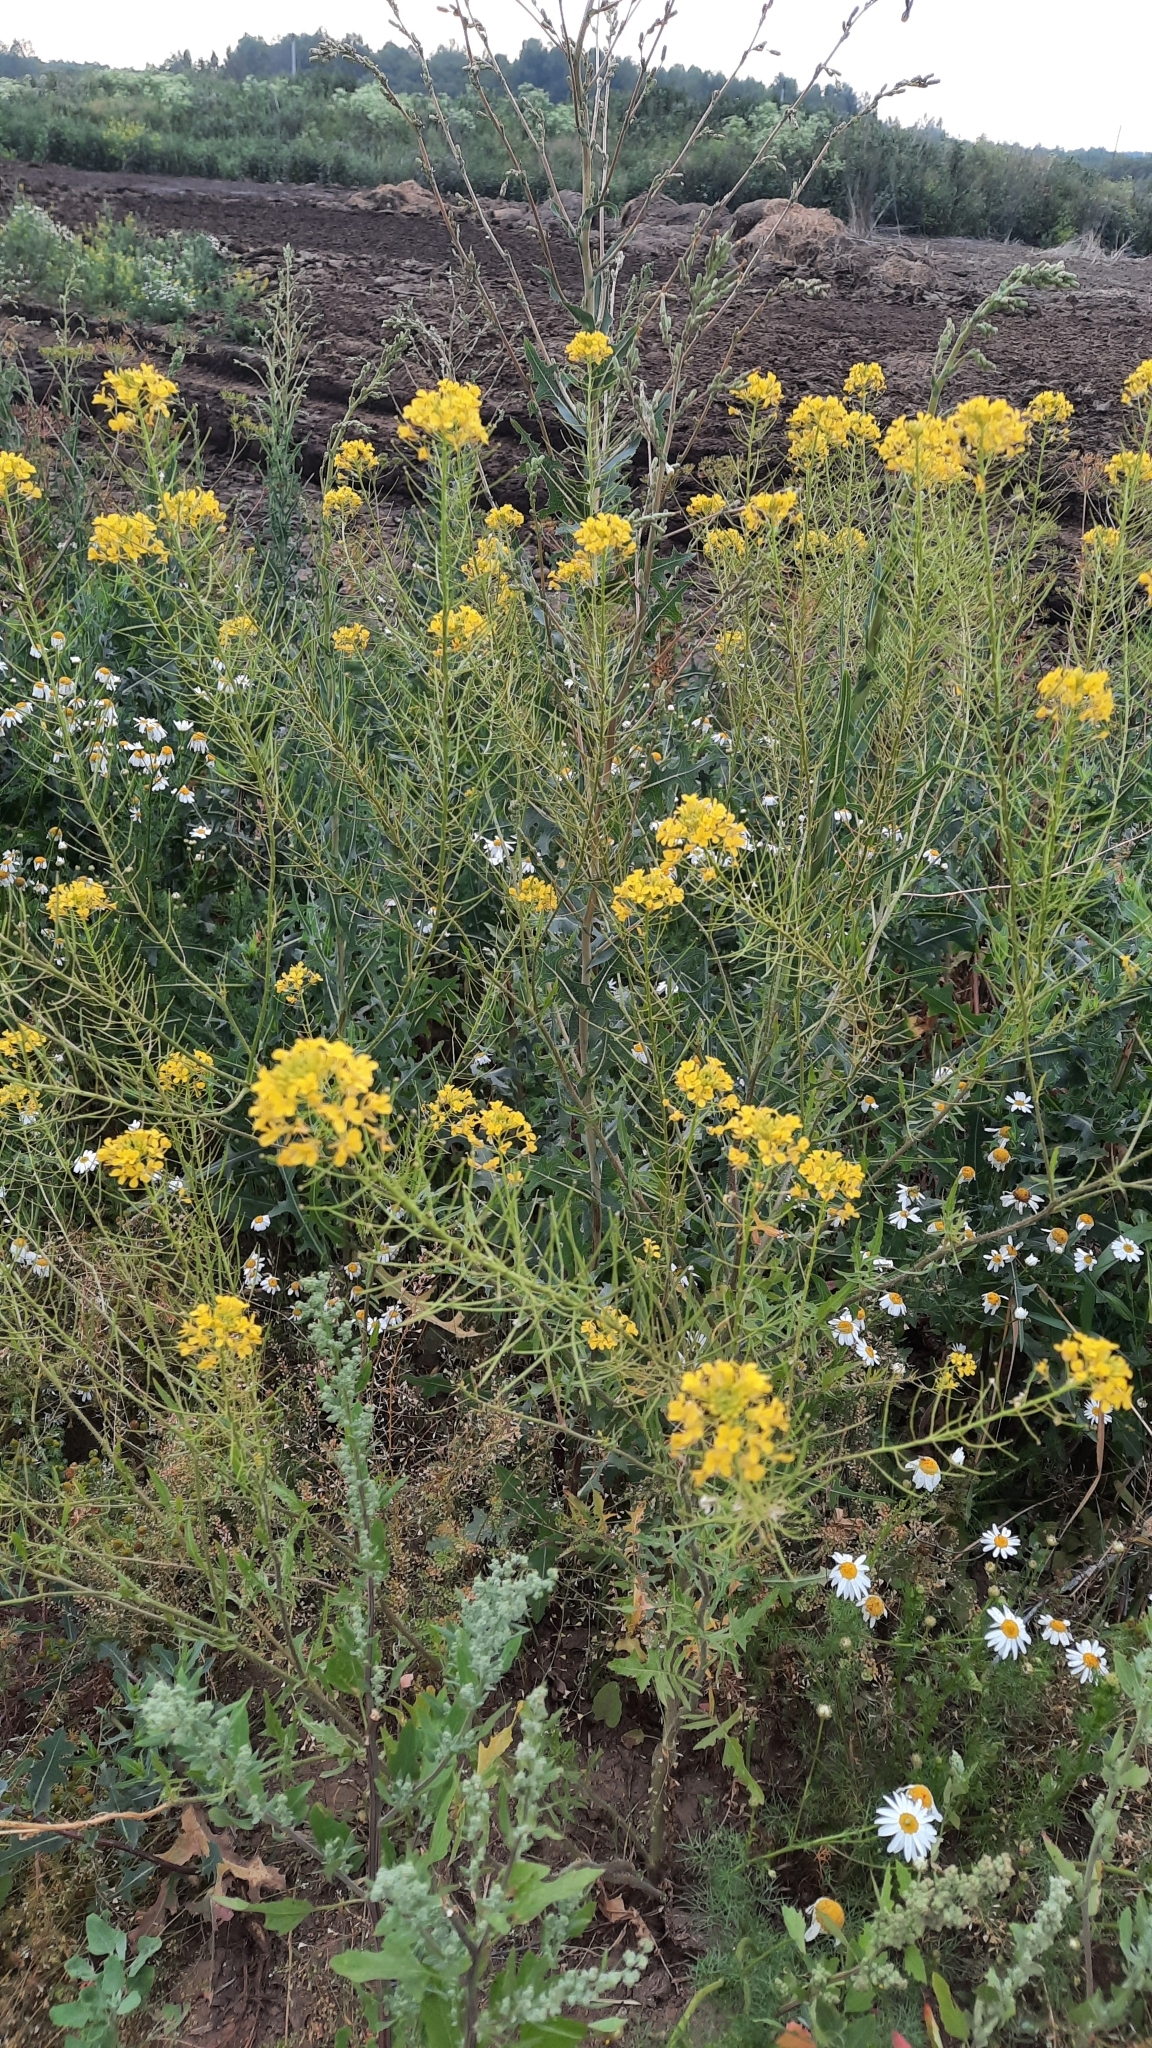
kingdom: Plantae
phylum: Tracheophyta
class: Magnoliopsida
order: Brassicales
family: Brassicaceae
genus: Sisymbrium
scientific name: Sisymbrium loeselii
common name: False london-rocket
